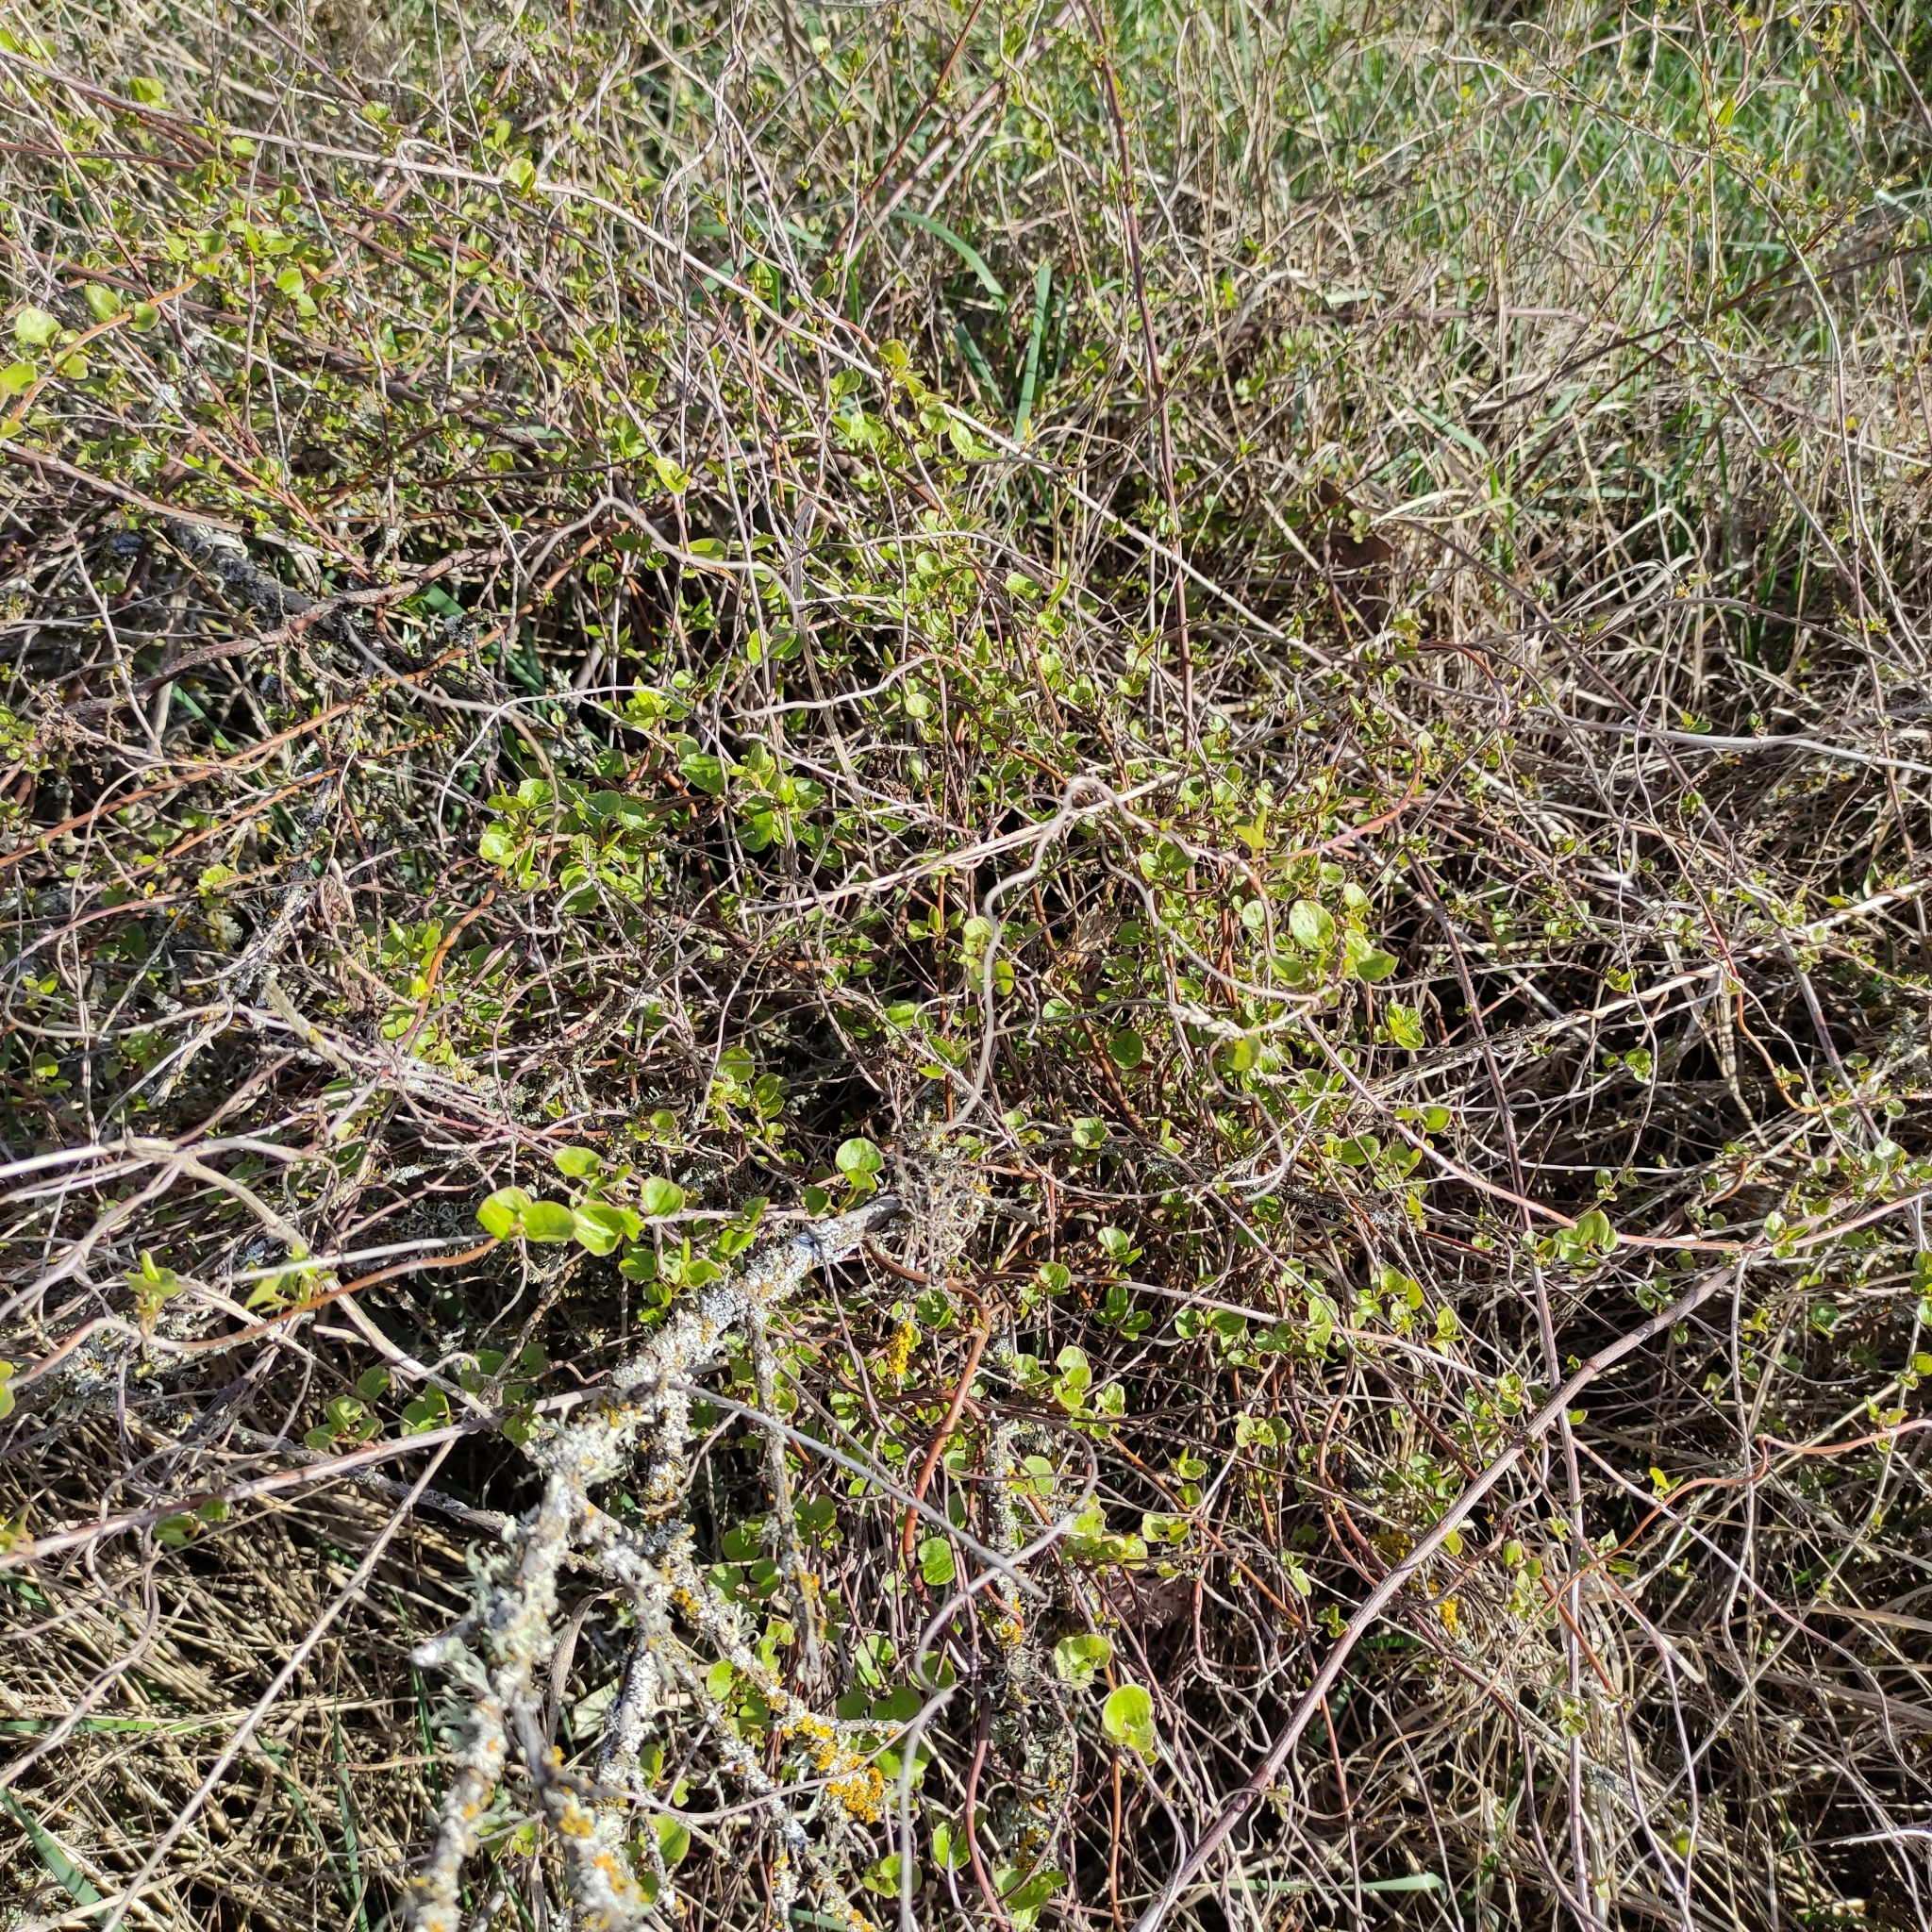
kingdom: Plantae
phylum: Tracheophyta
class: Magnoliopsida
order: Caryophyllales
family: Polygonaceae
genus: Muehlenbeckia
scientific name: Muehlenbeckia australis
